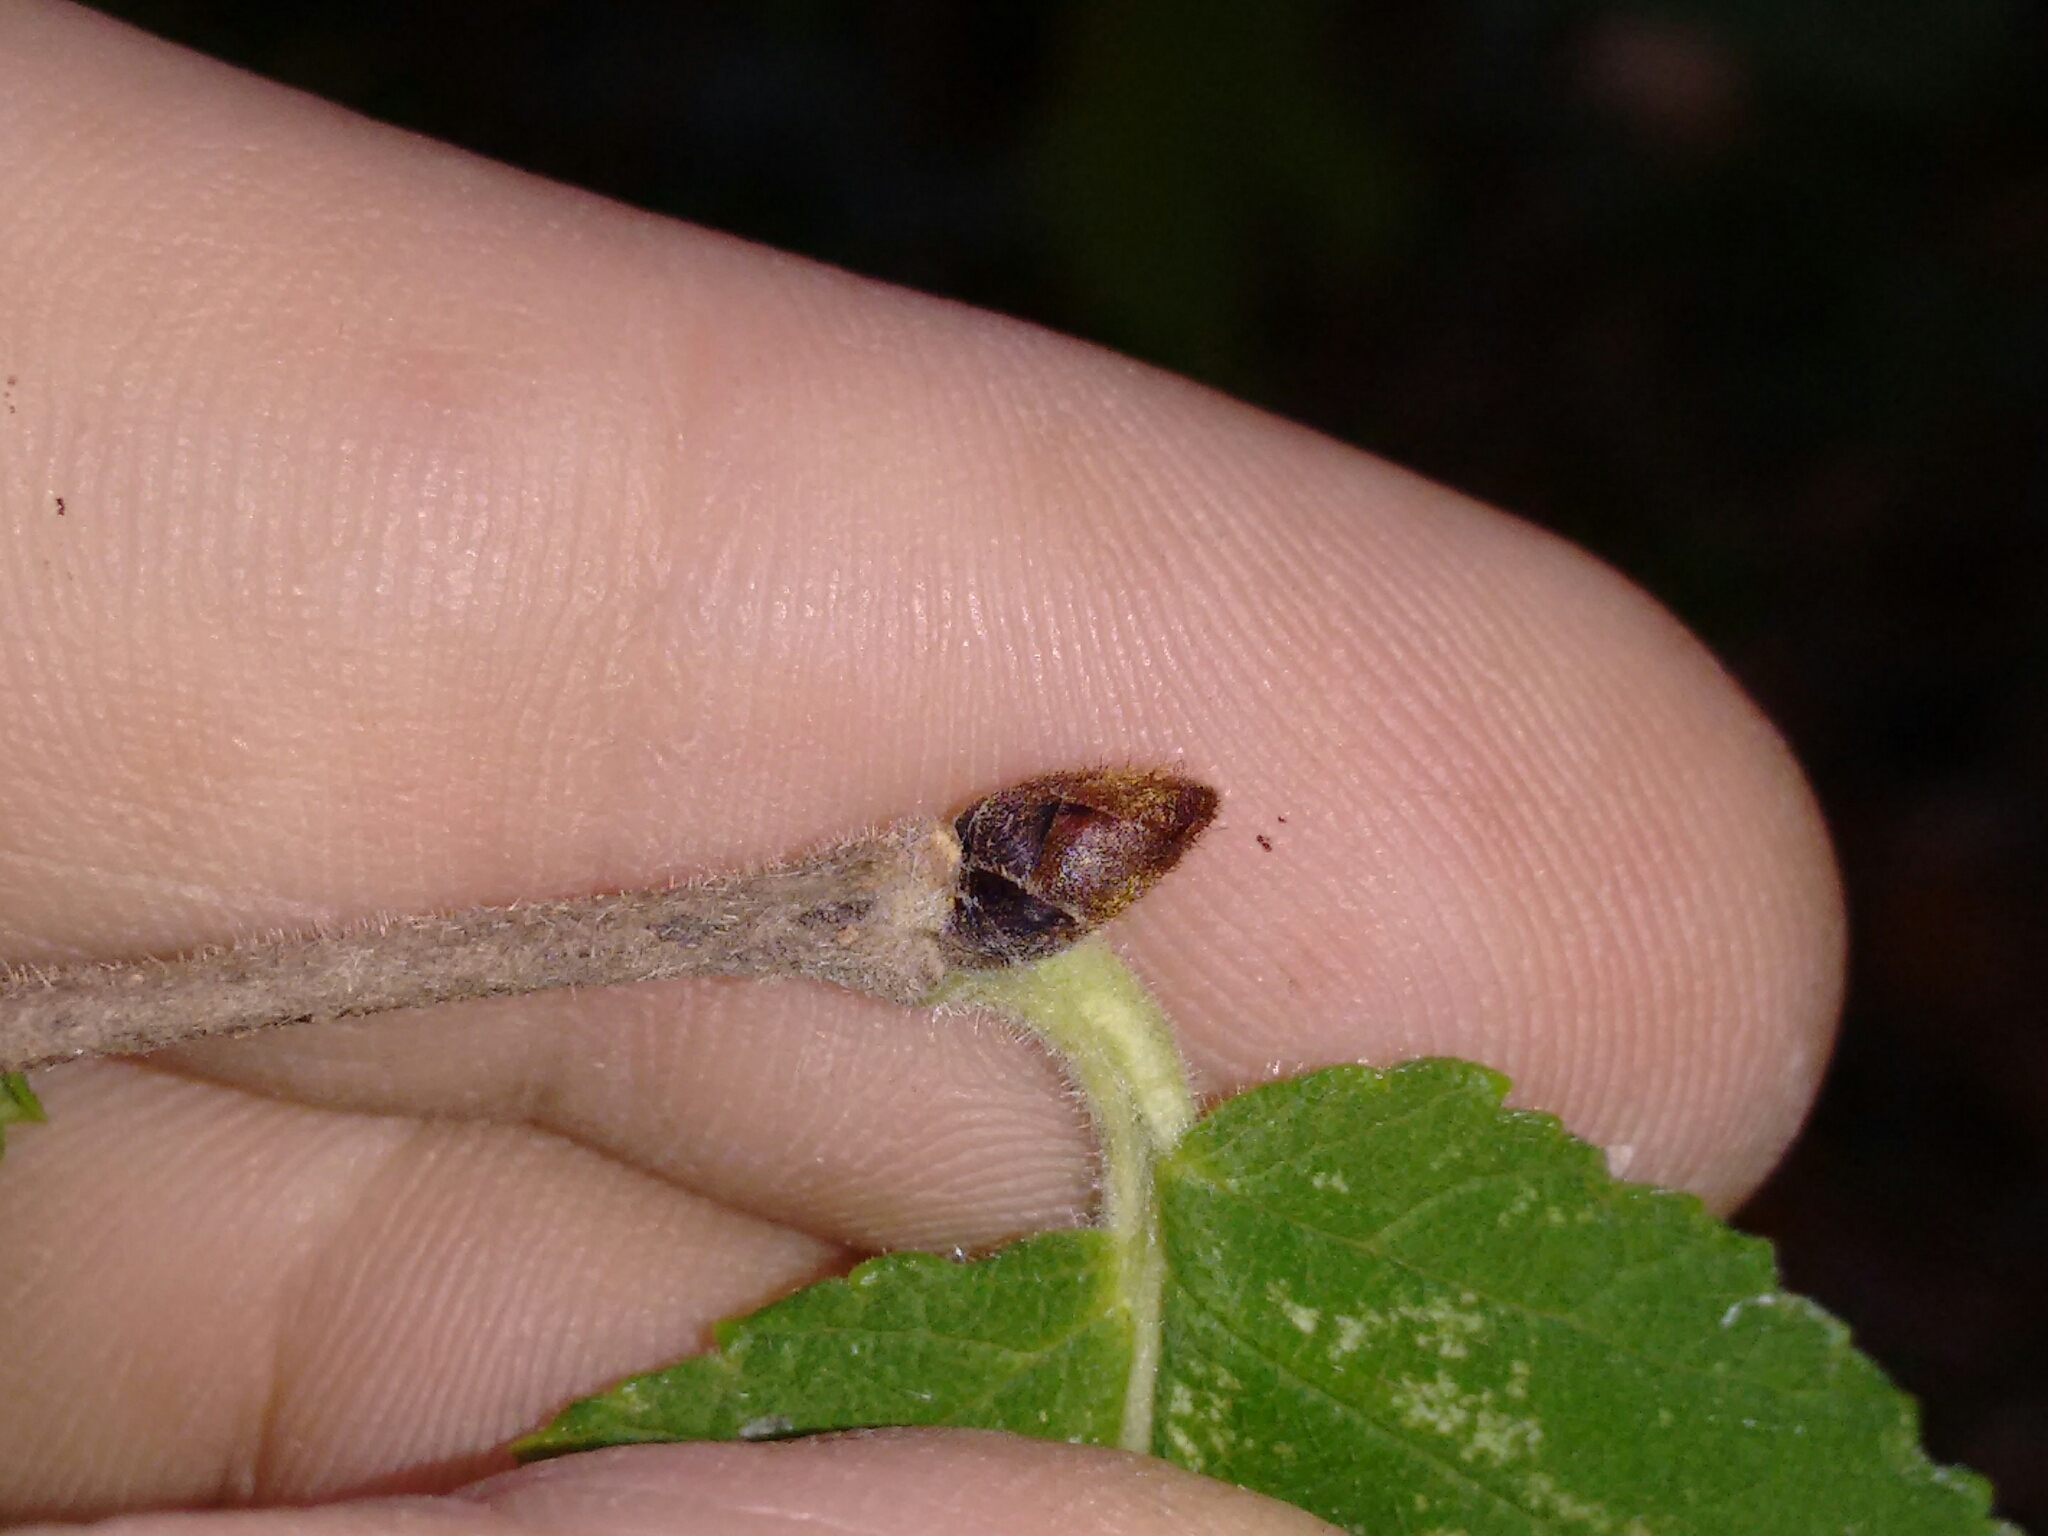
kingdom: Plantae
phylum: Tracheophyta
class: Magnoliopsida
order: Rosales
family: Ulmaceae
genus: Ulmus
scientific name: Ulmus rubra
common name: Slippery elm
